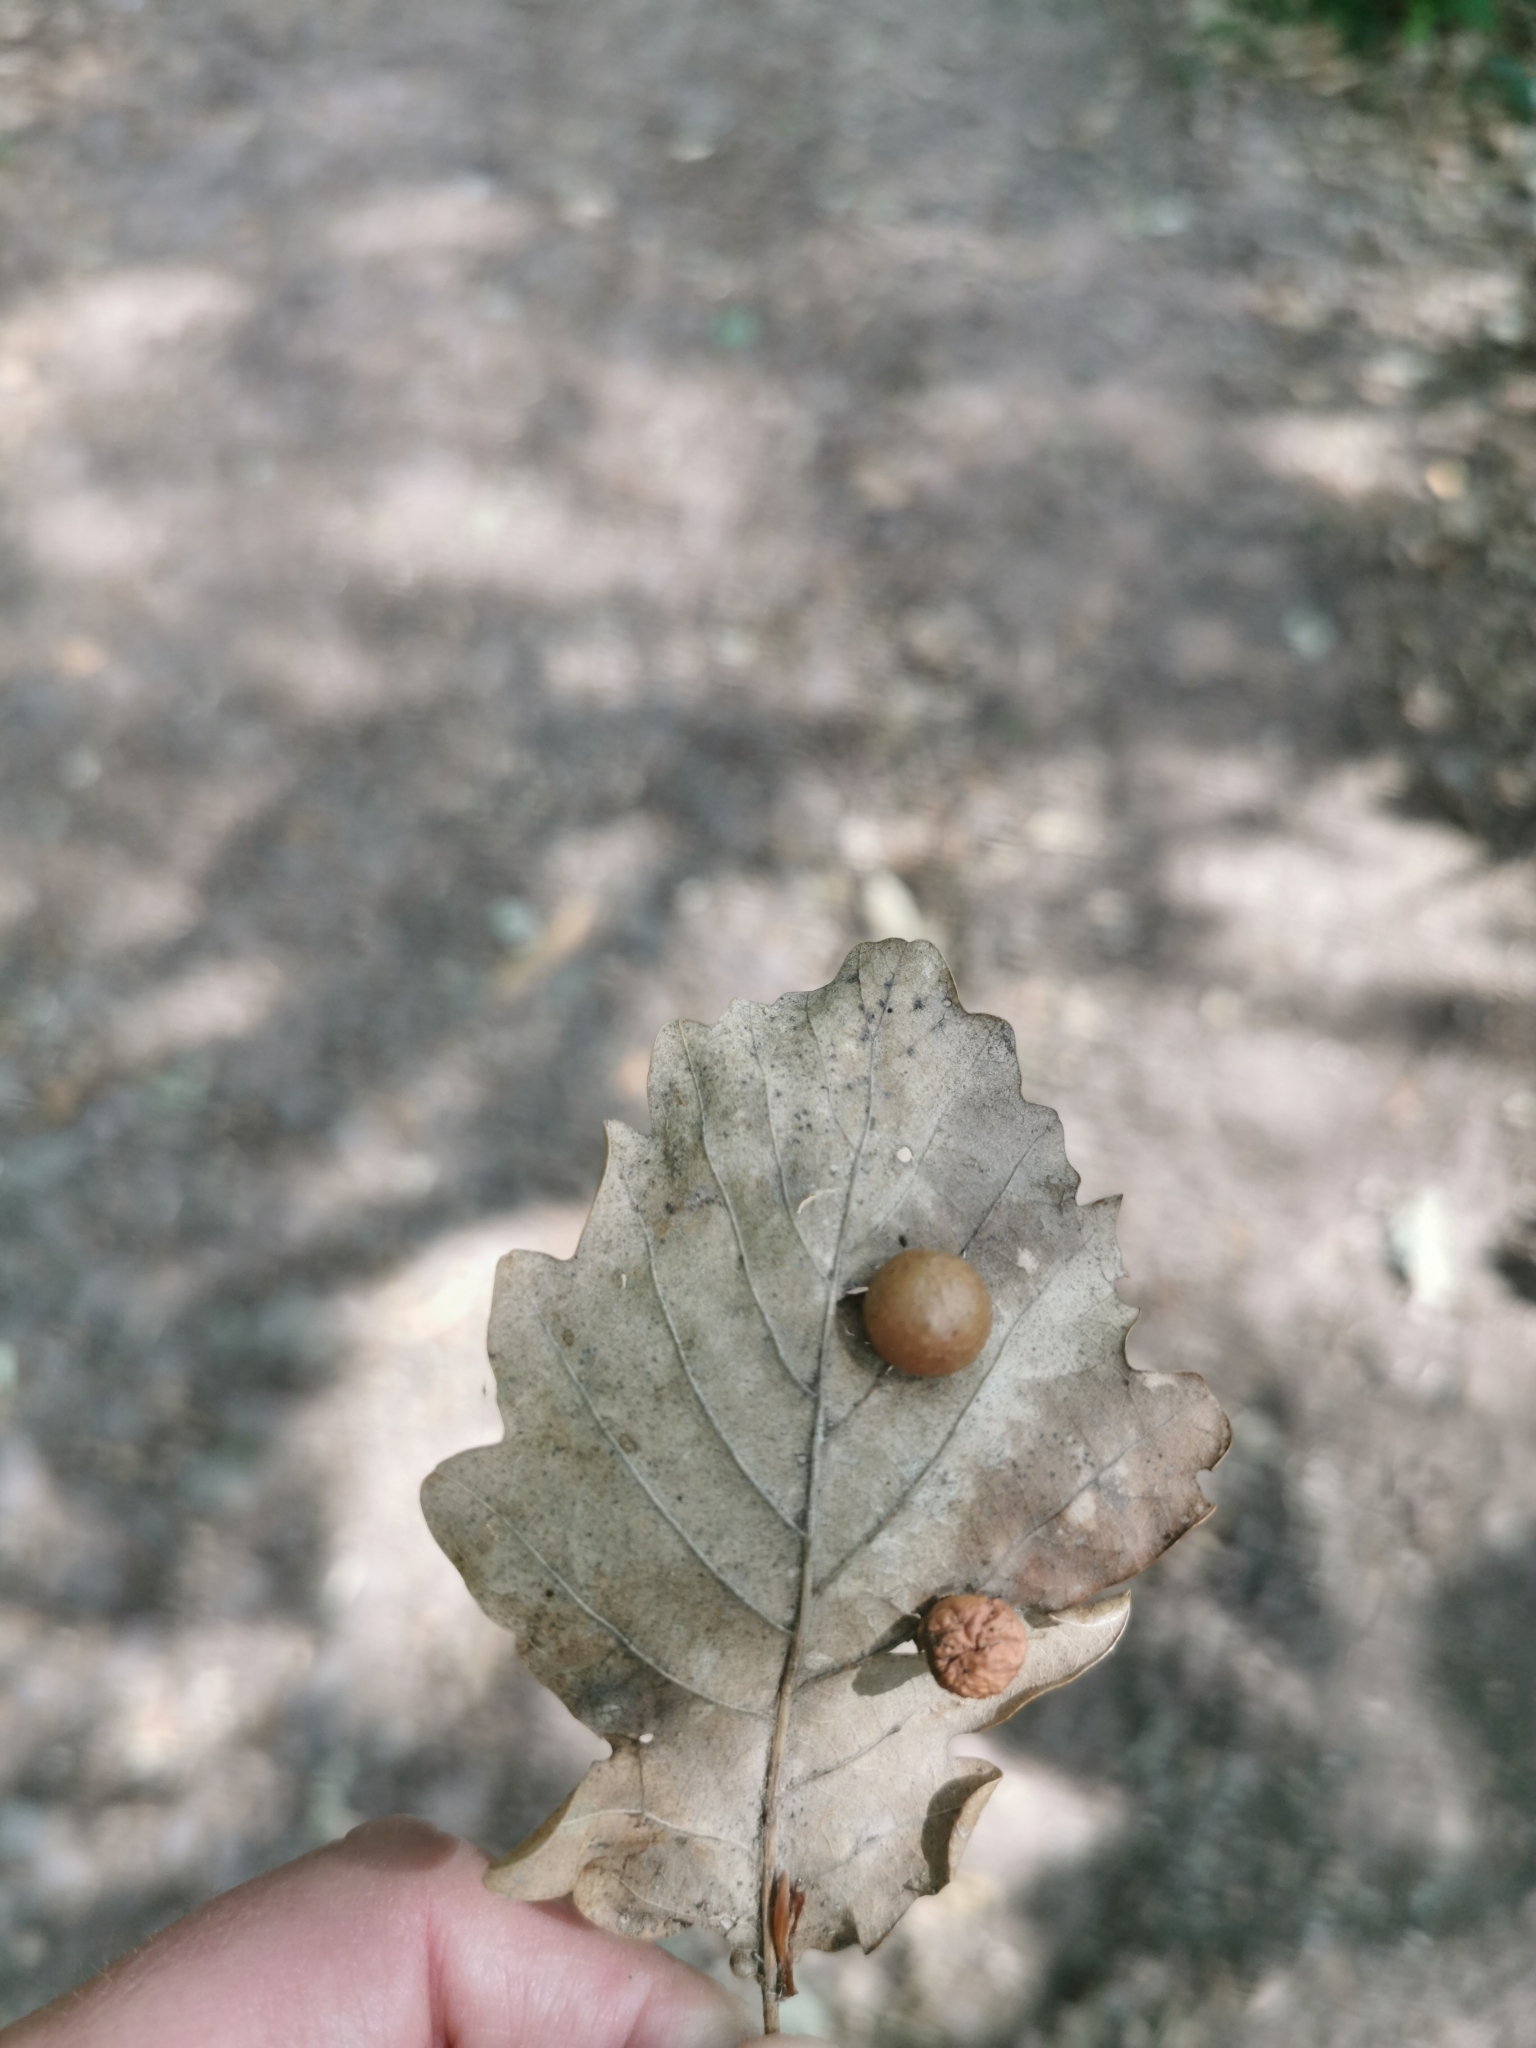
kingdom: Animalia
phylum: Arthropoda
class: Insecta
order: Hymenoptera
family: Cynipidae
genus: Cynips
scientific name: Cynips quercusfolii
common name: Cherry gall
